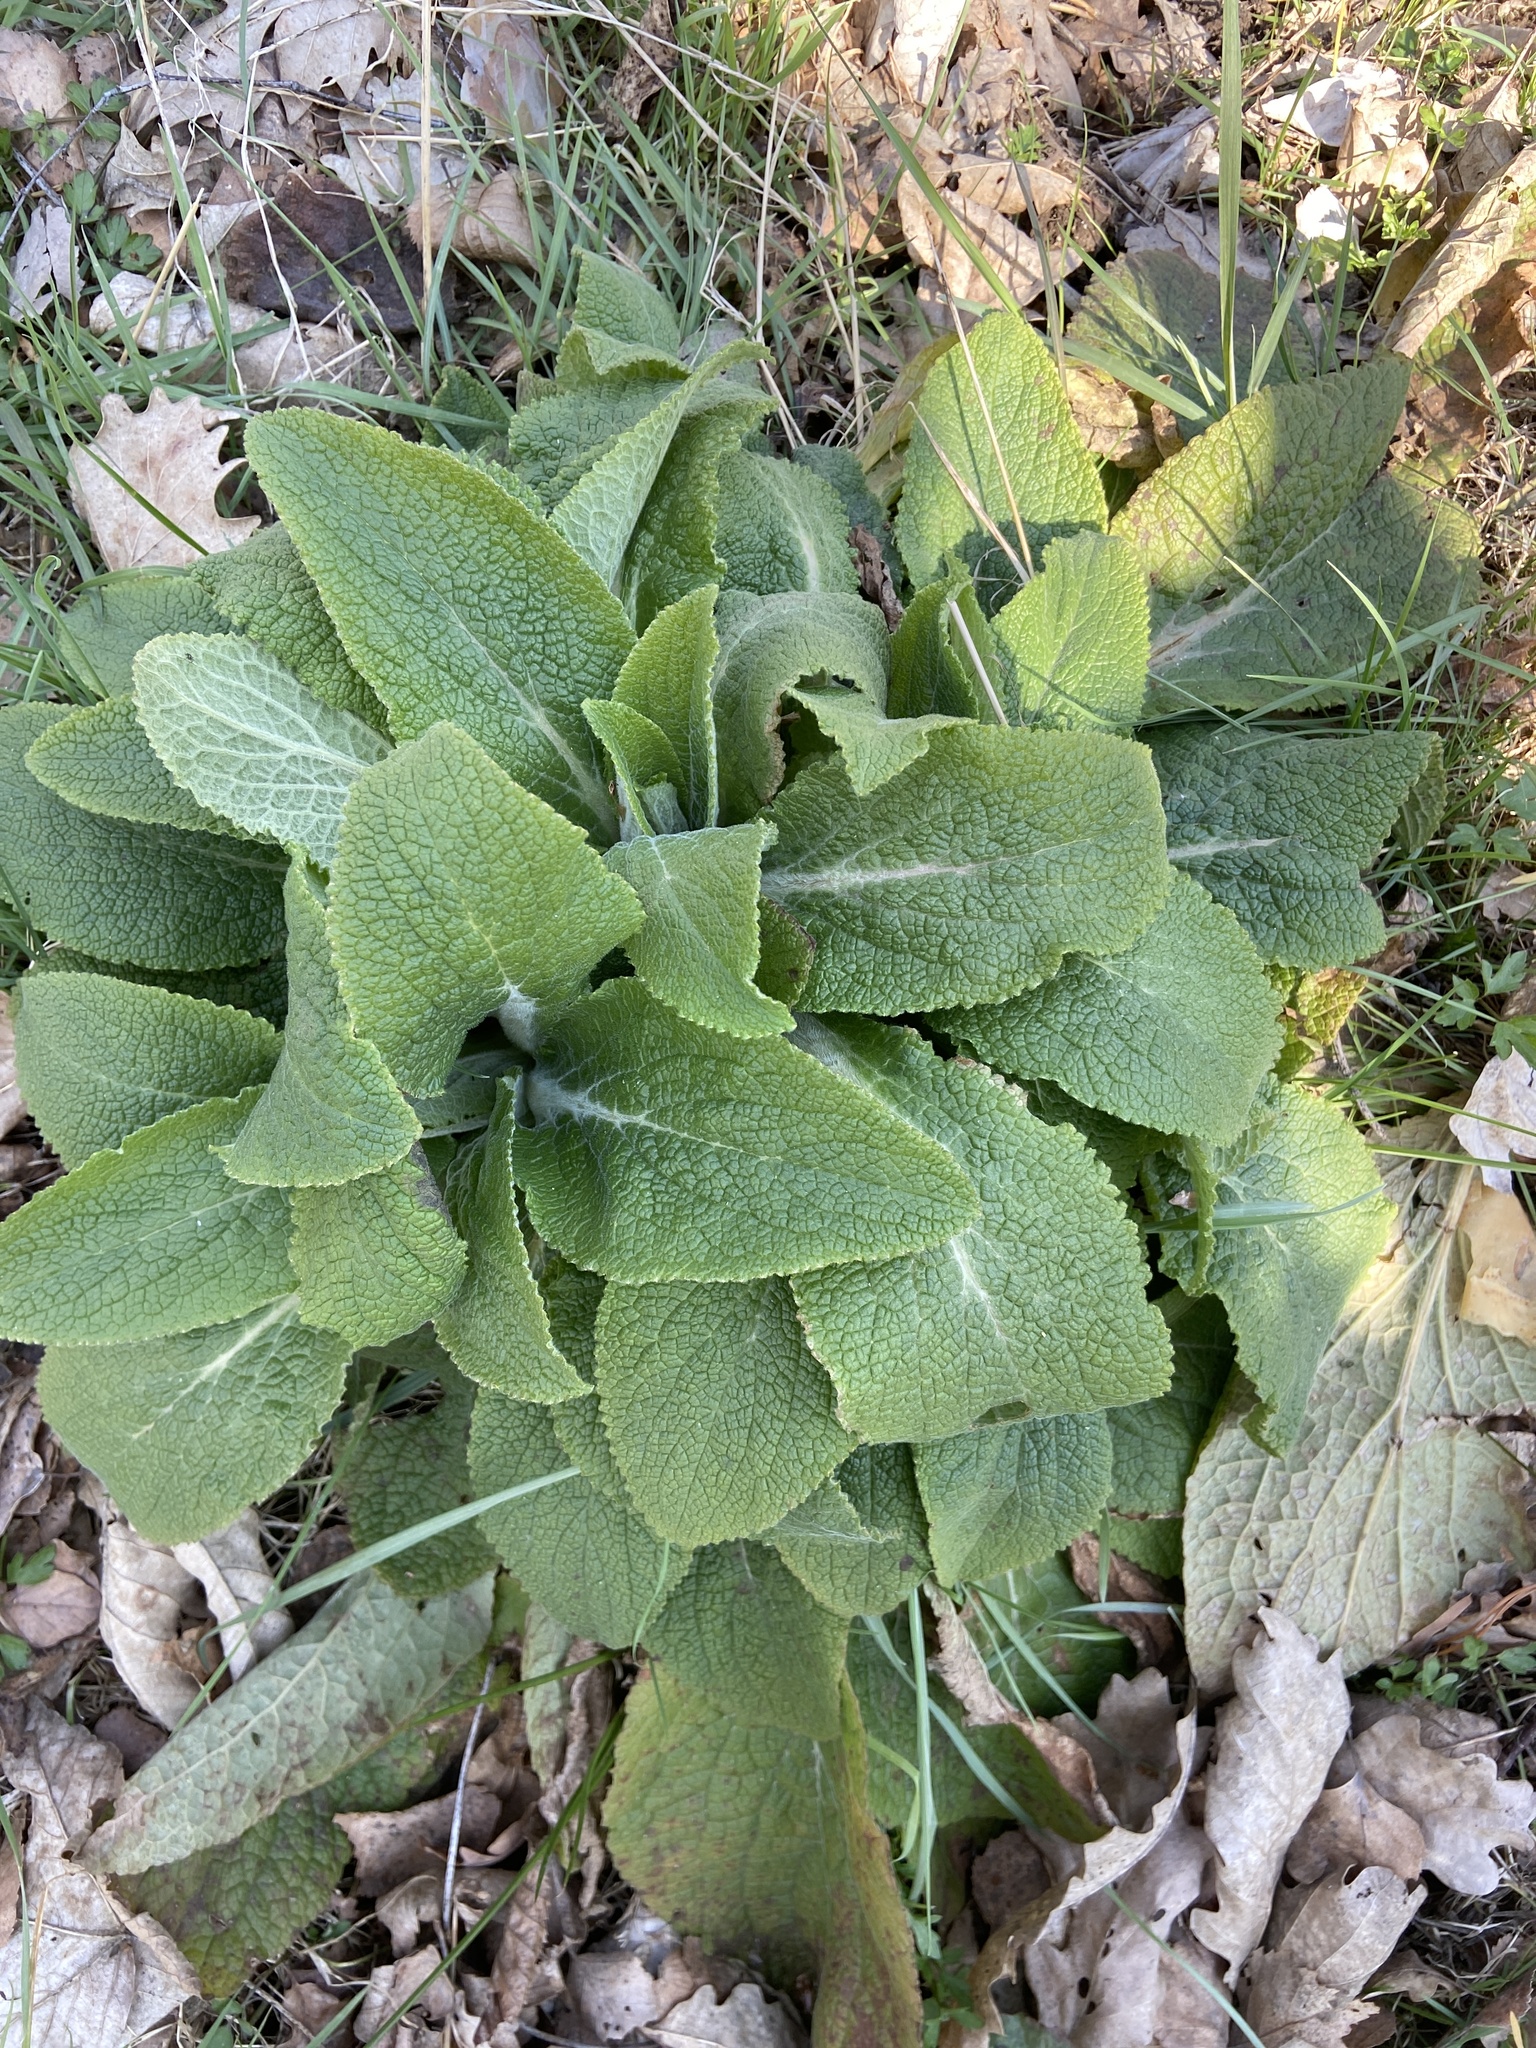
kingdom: Plantae
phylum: Tracheophyta
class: Magnoliopsida
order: Lamiales
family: Plantaginaceae
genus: Digitalis
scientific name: Digitalis purpurea
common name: Foxglove
